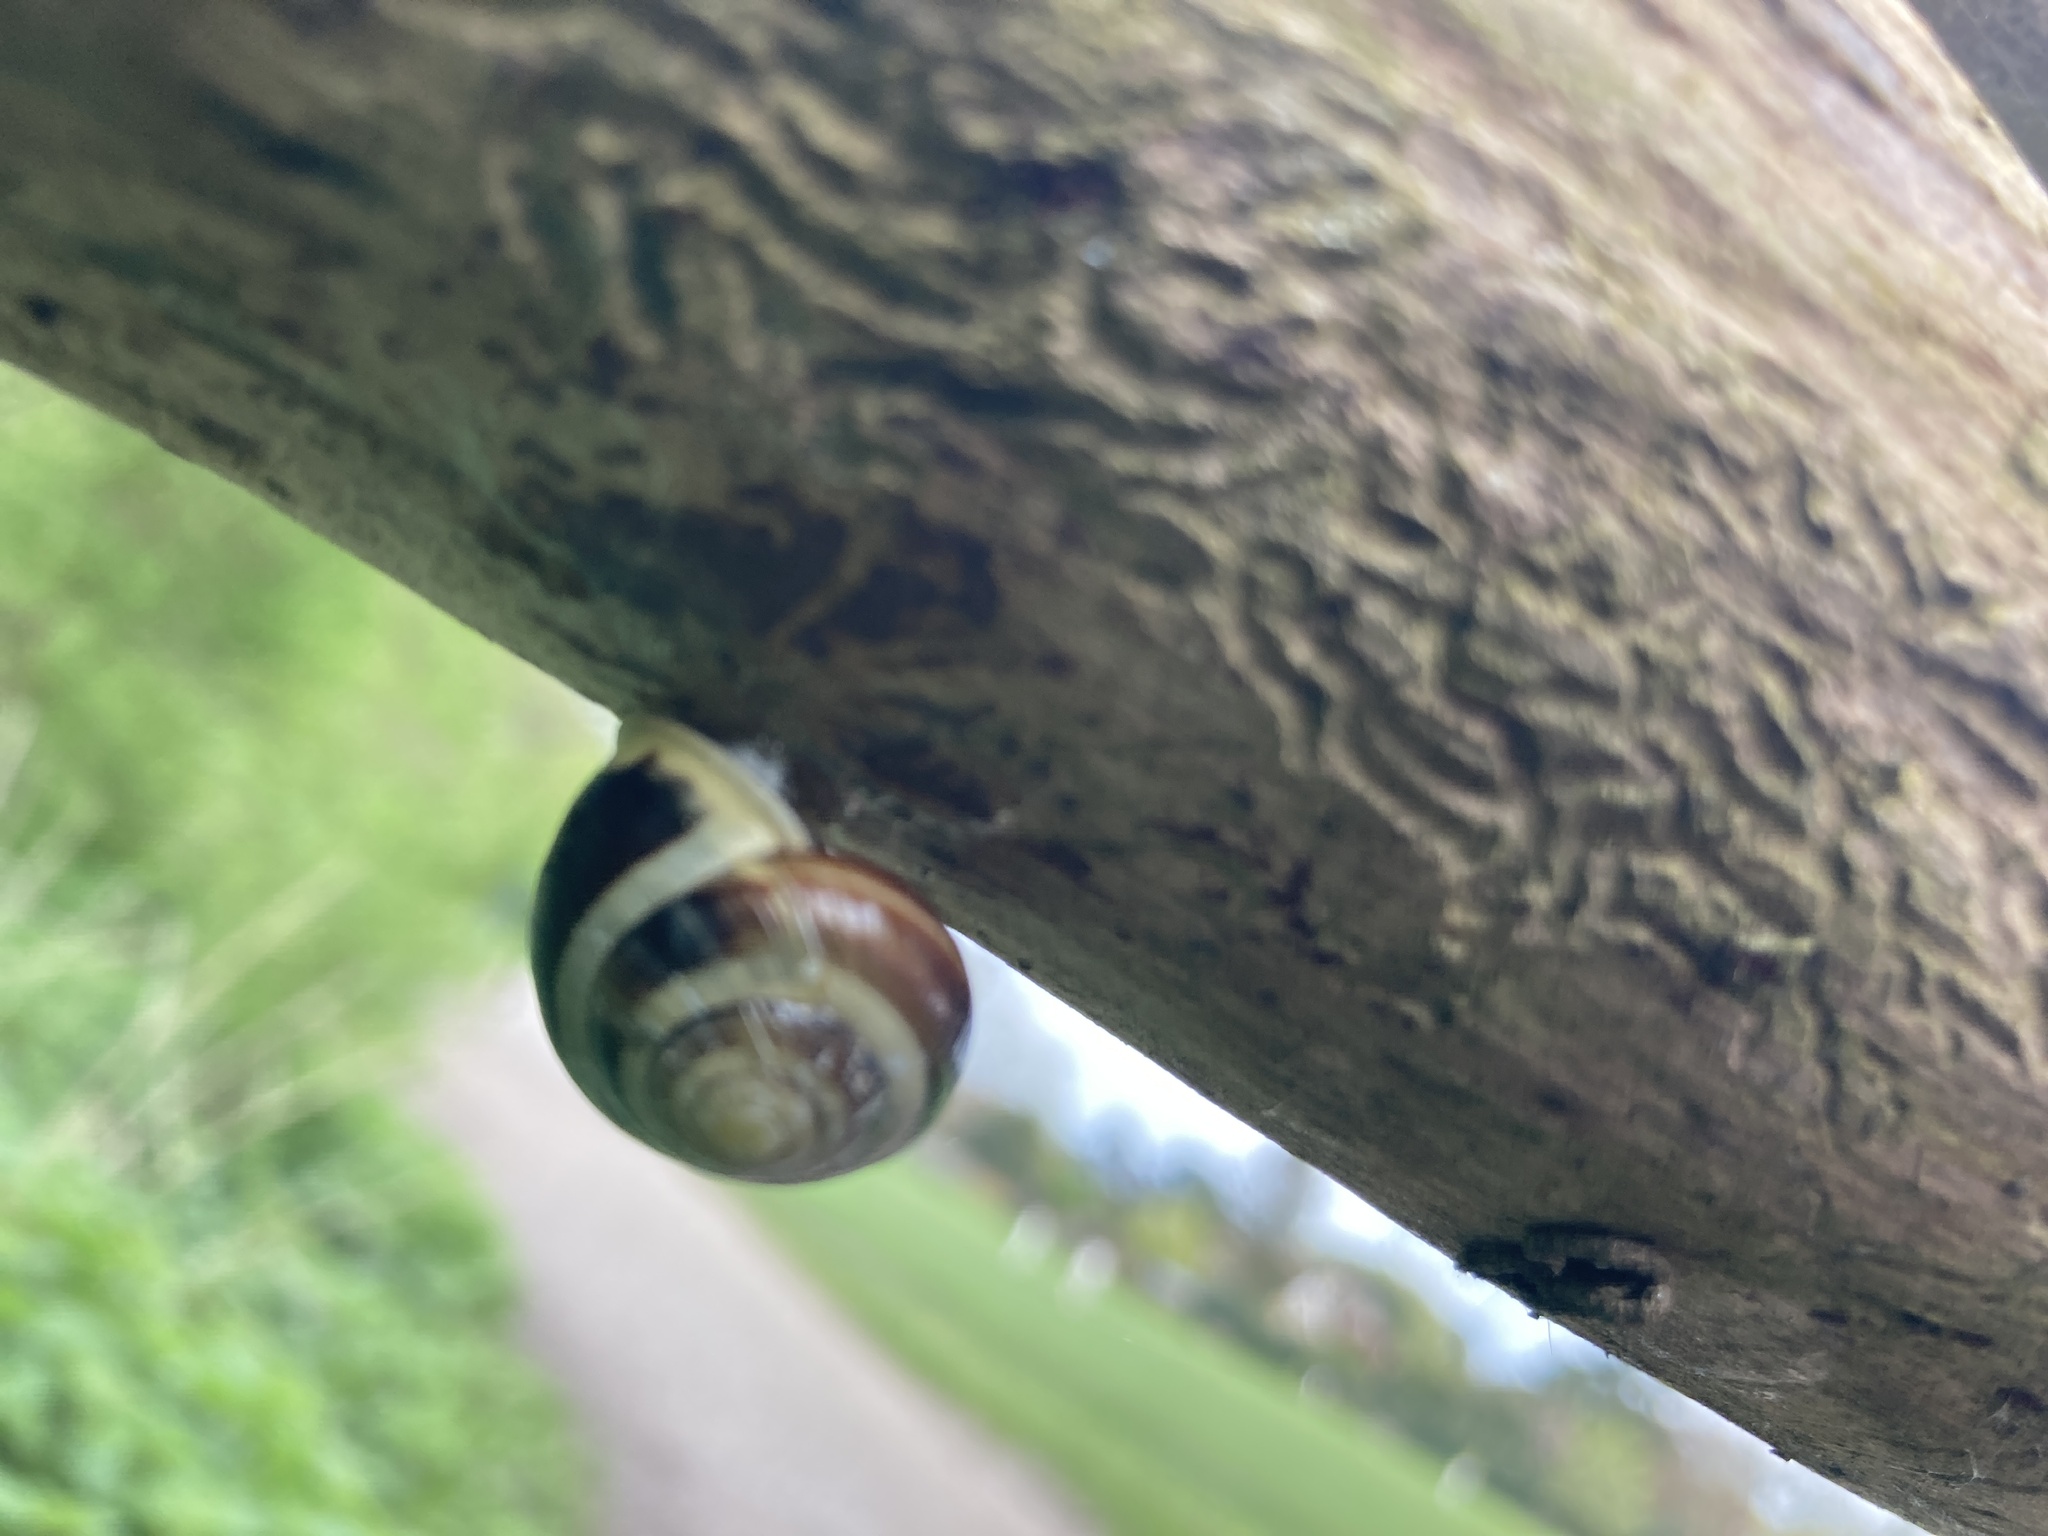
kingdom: Animalia
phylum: Mollusca
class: Gastropoda
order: Stylommatophora
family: Helicidae
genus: Cepaea
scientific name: Cepaea hortensis
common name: White-lip gardensnail
